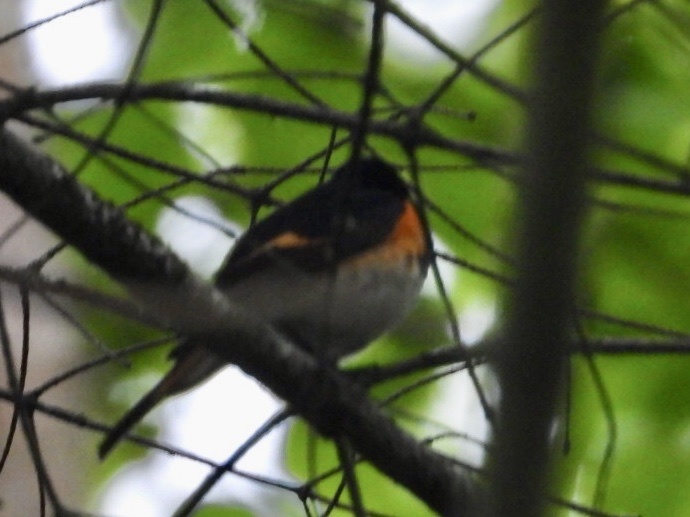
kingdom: Animalia
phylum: Chordata
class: Aves
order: Passeriformes
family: Parulidae
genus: Setophaga
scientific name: Setophaga ruticilla
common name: American redstart
